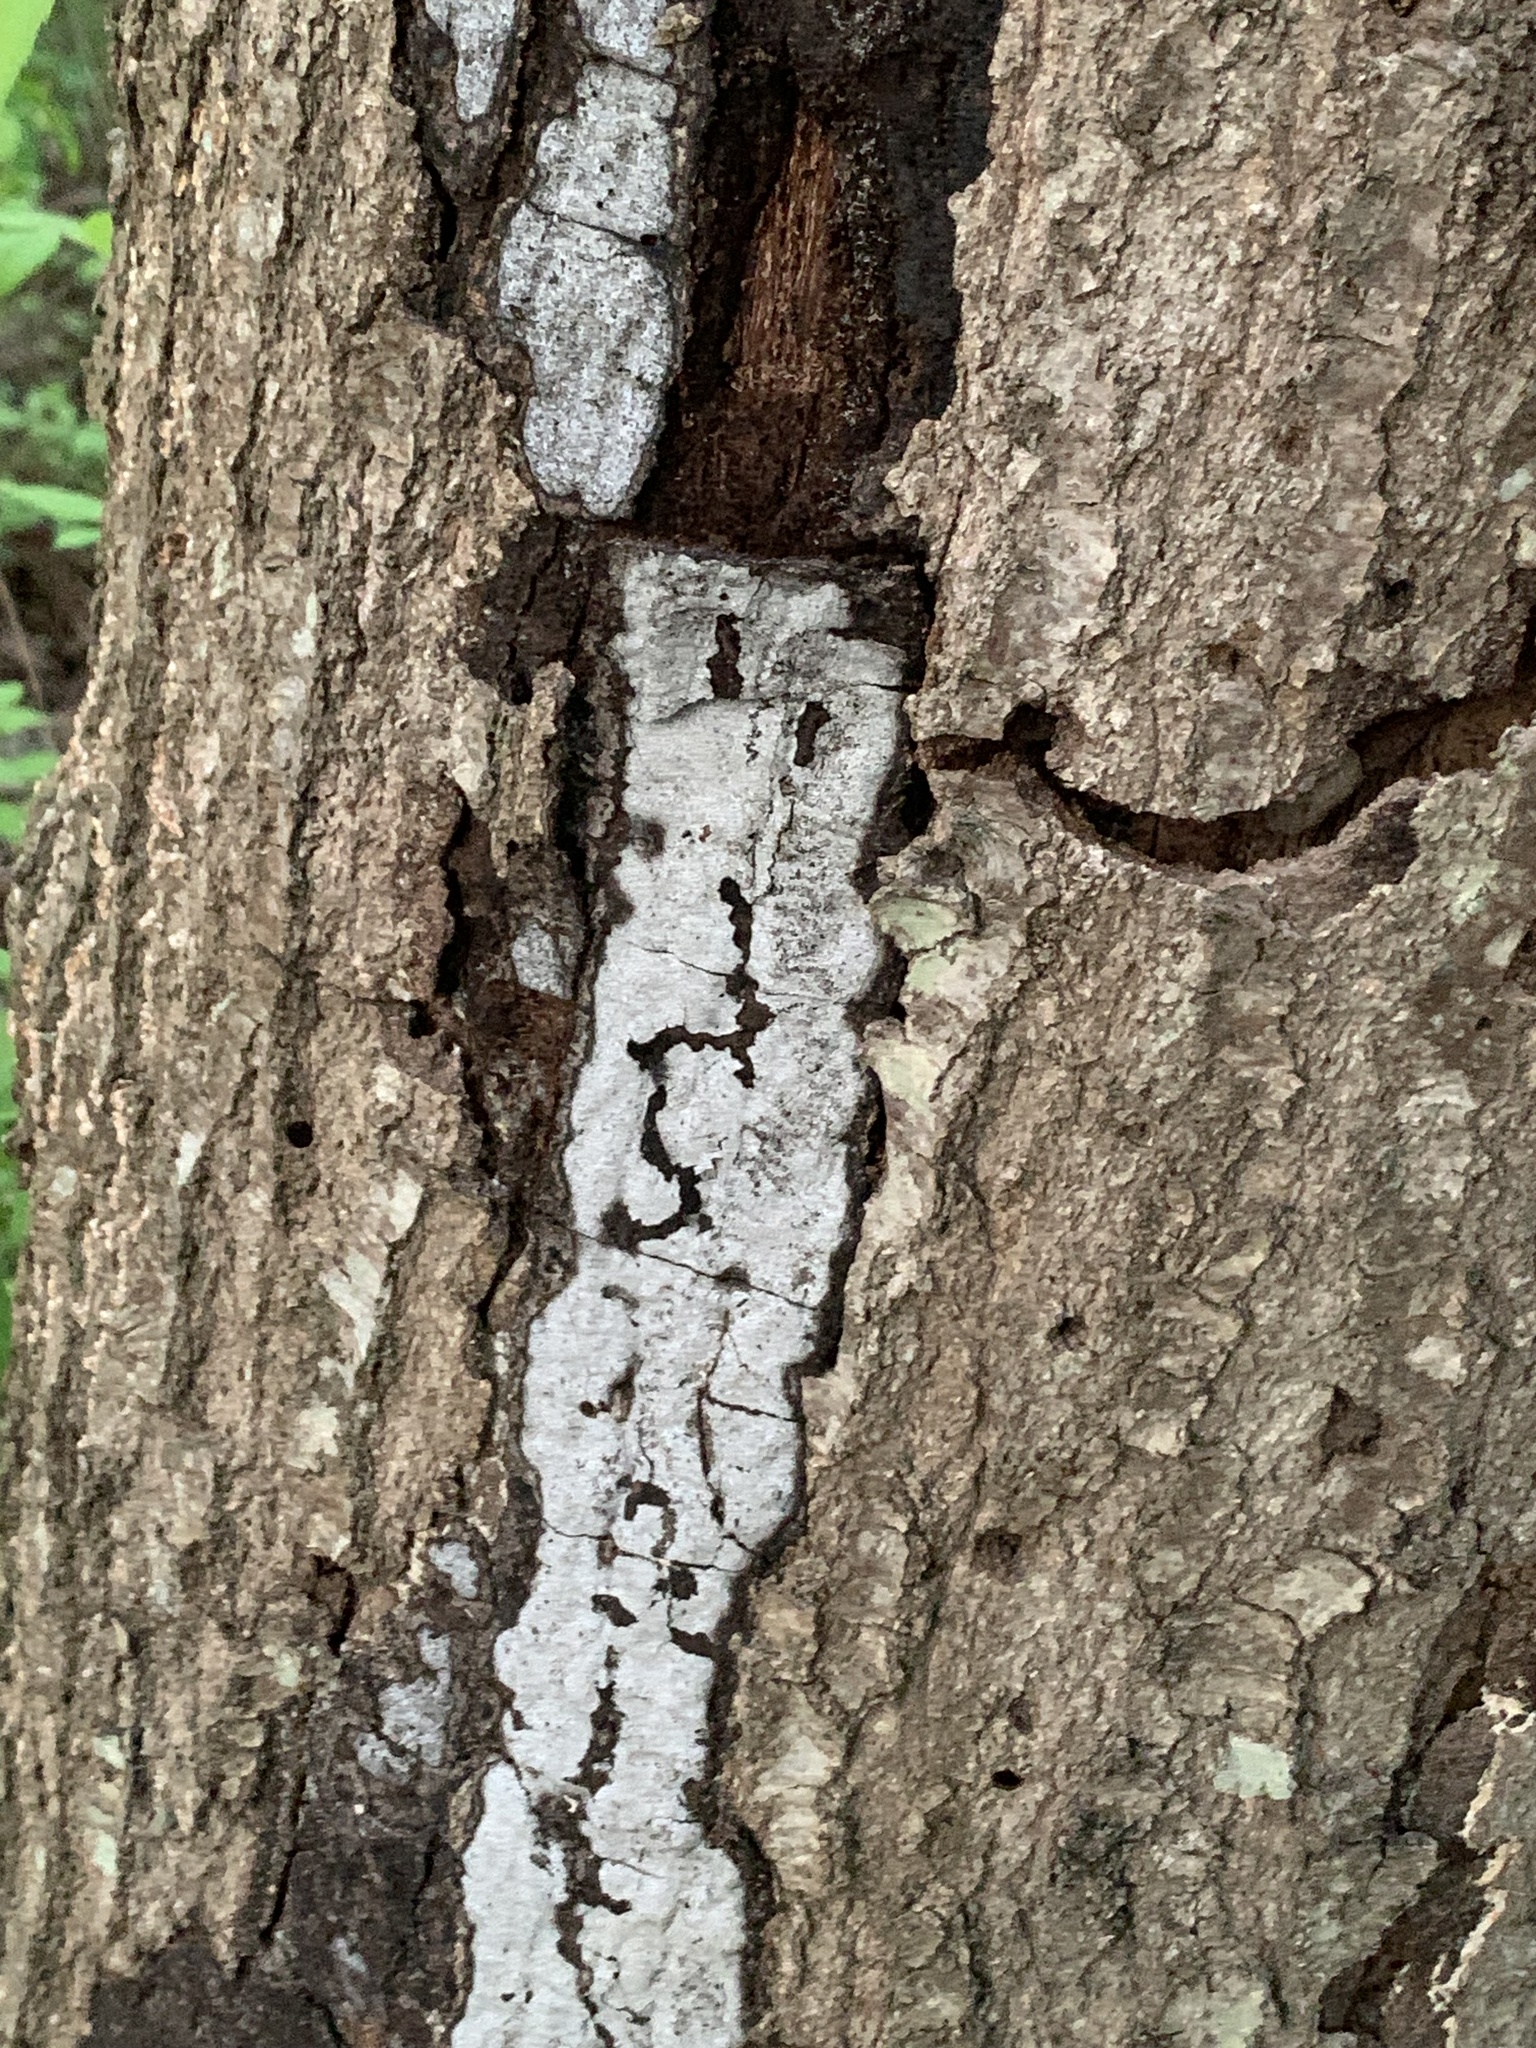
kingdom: Fungi
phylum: Ascomycota
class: Sordariomycetes
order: Xylariales
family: Graphostromataceae
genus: Biscogniauxia
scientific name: Biscogniauxia atropunctata
